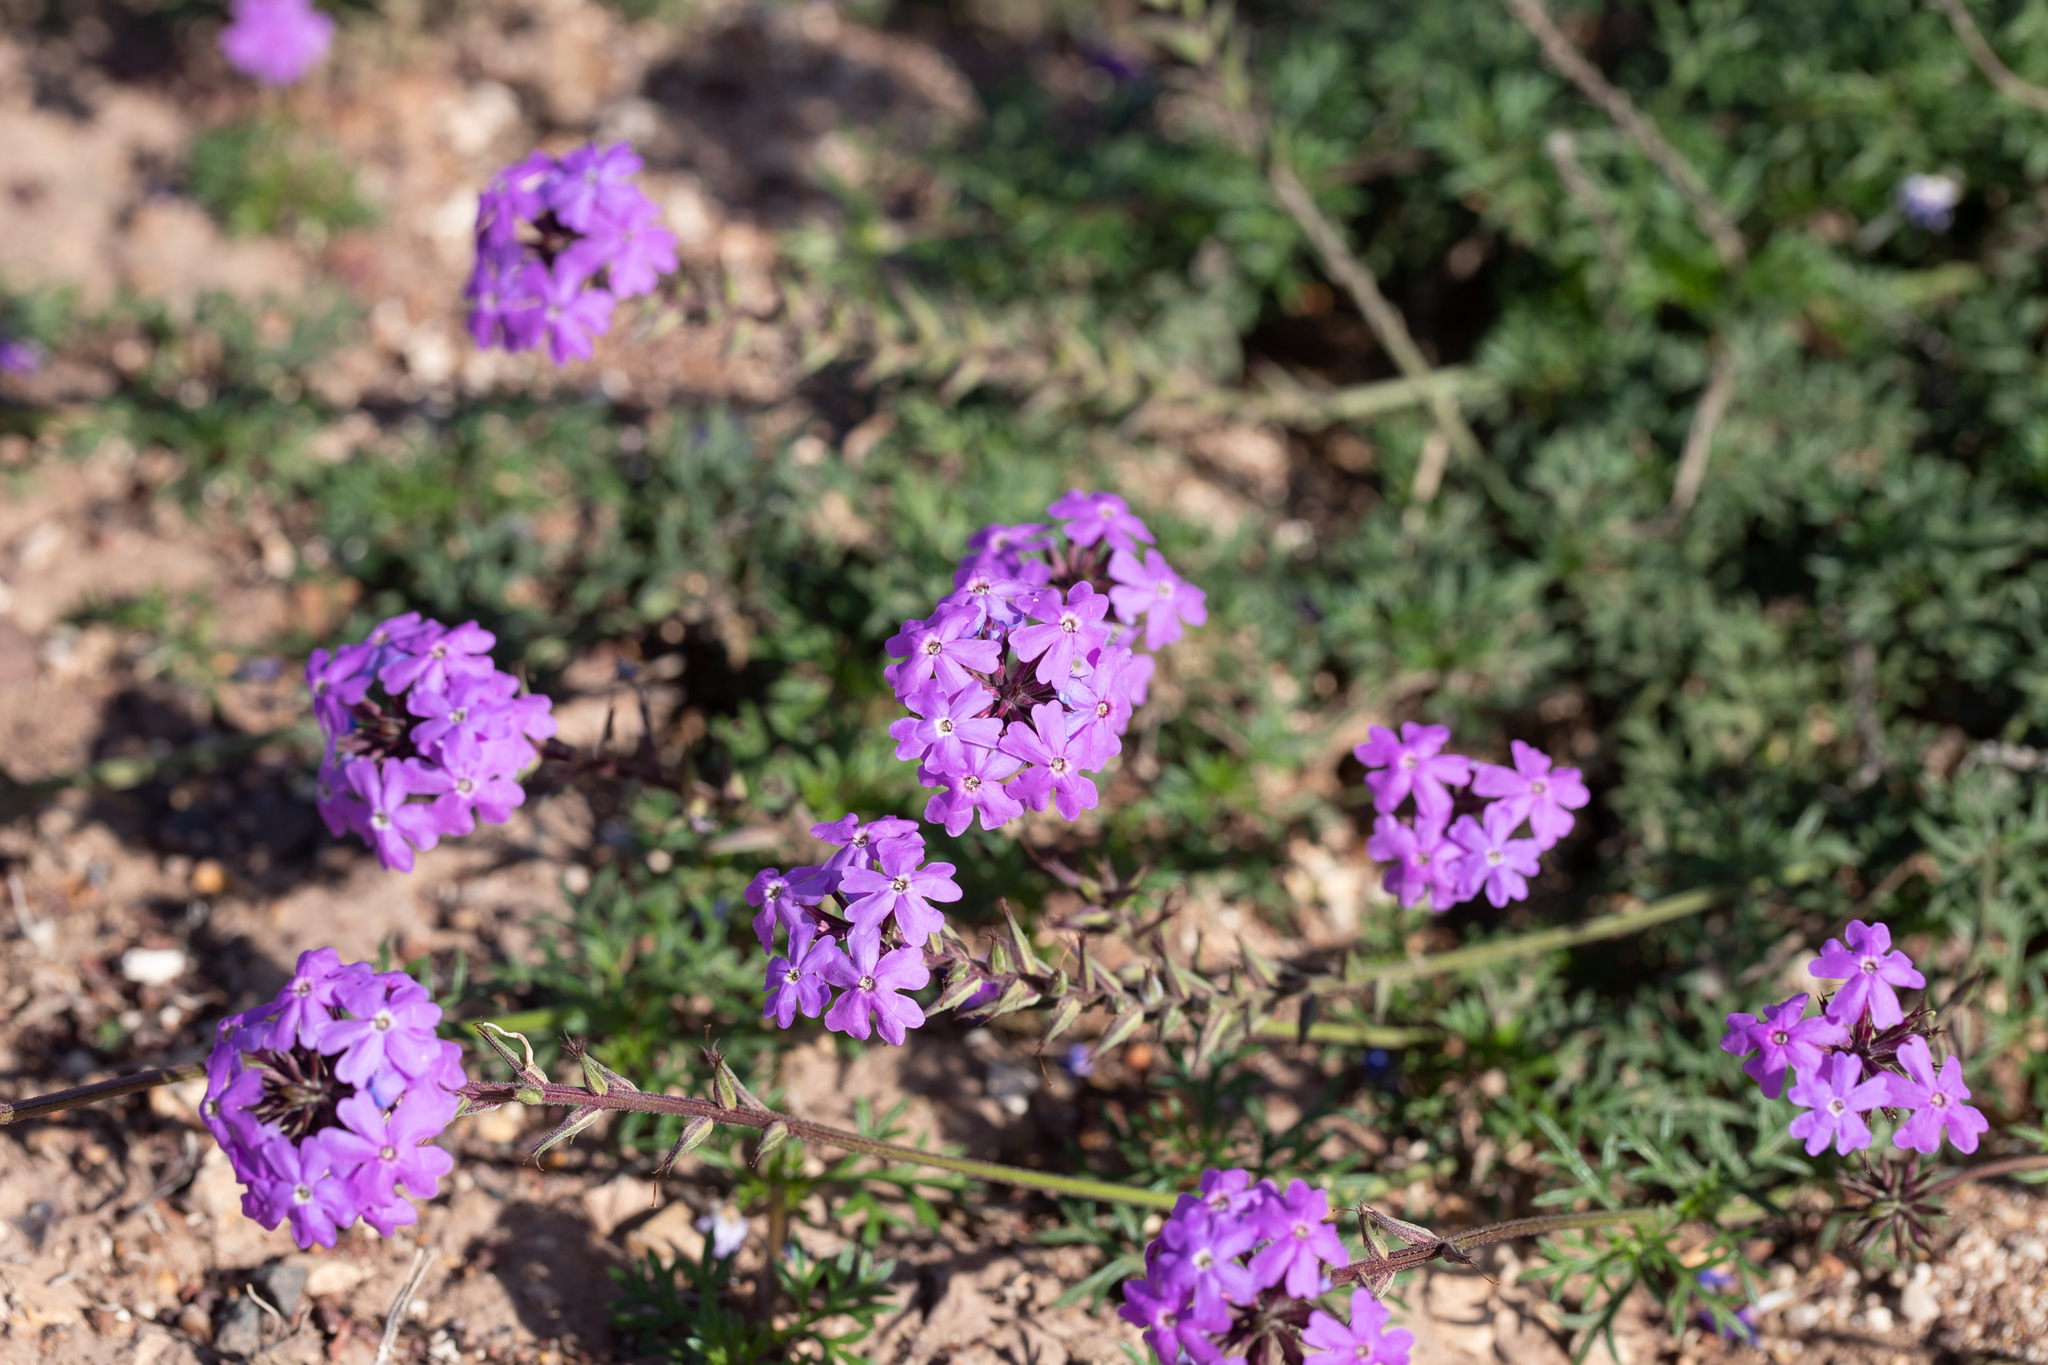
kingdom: Plantae
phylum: Tracheophyta
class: Magnoliopsida
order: Lamiales
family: Verbenaceae
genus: Verbena
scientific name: Verbena aristigera
